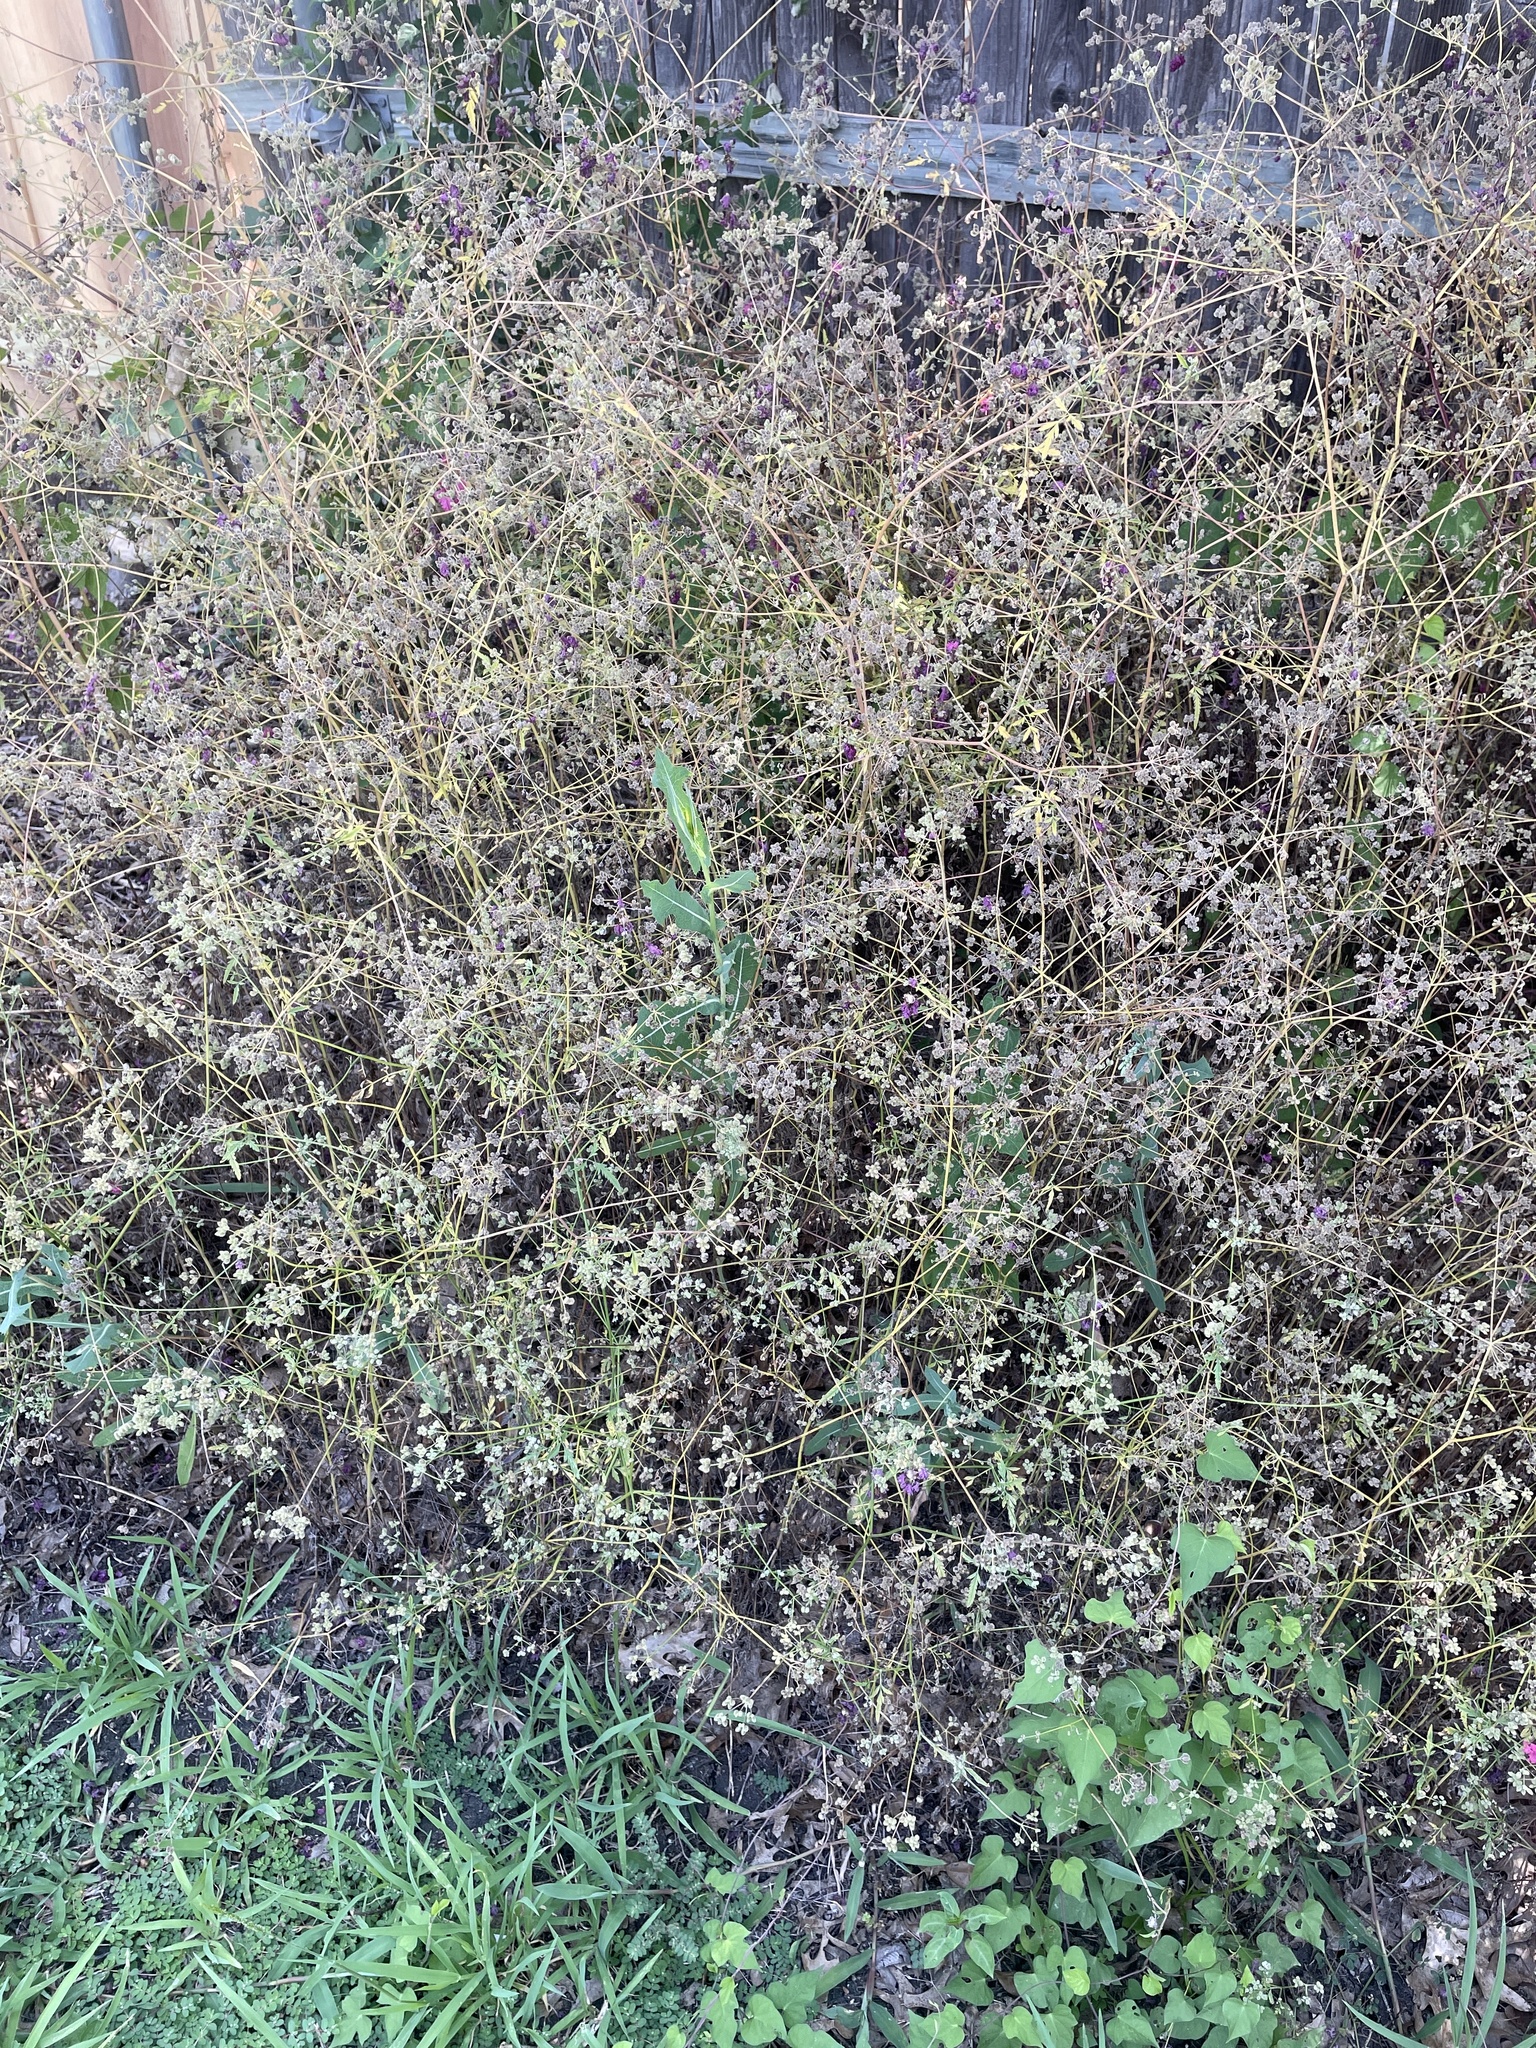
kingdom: Plantae
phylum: Tracheophyta
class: Magnoliopsida
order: Apiales
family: Apiaceae
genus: Torilis
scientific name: Torilis arvensis
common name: Spreading hedge-parsley
